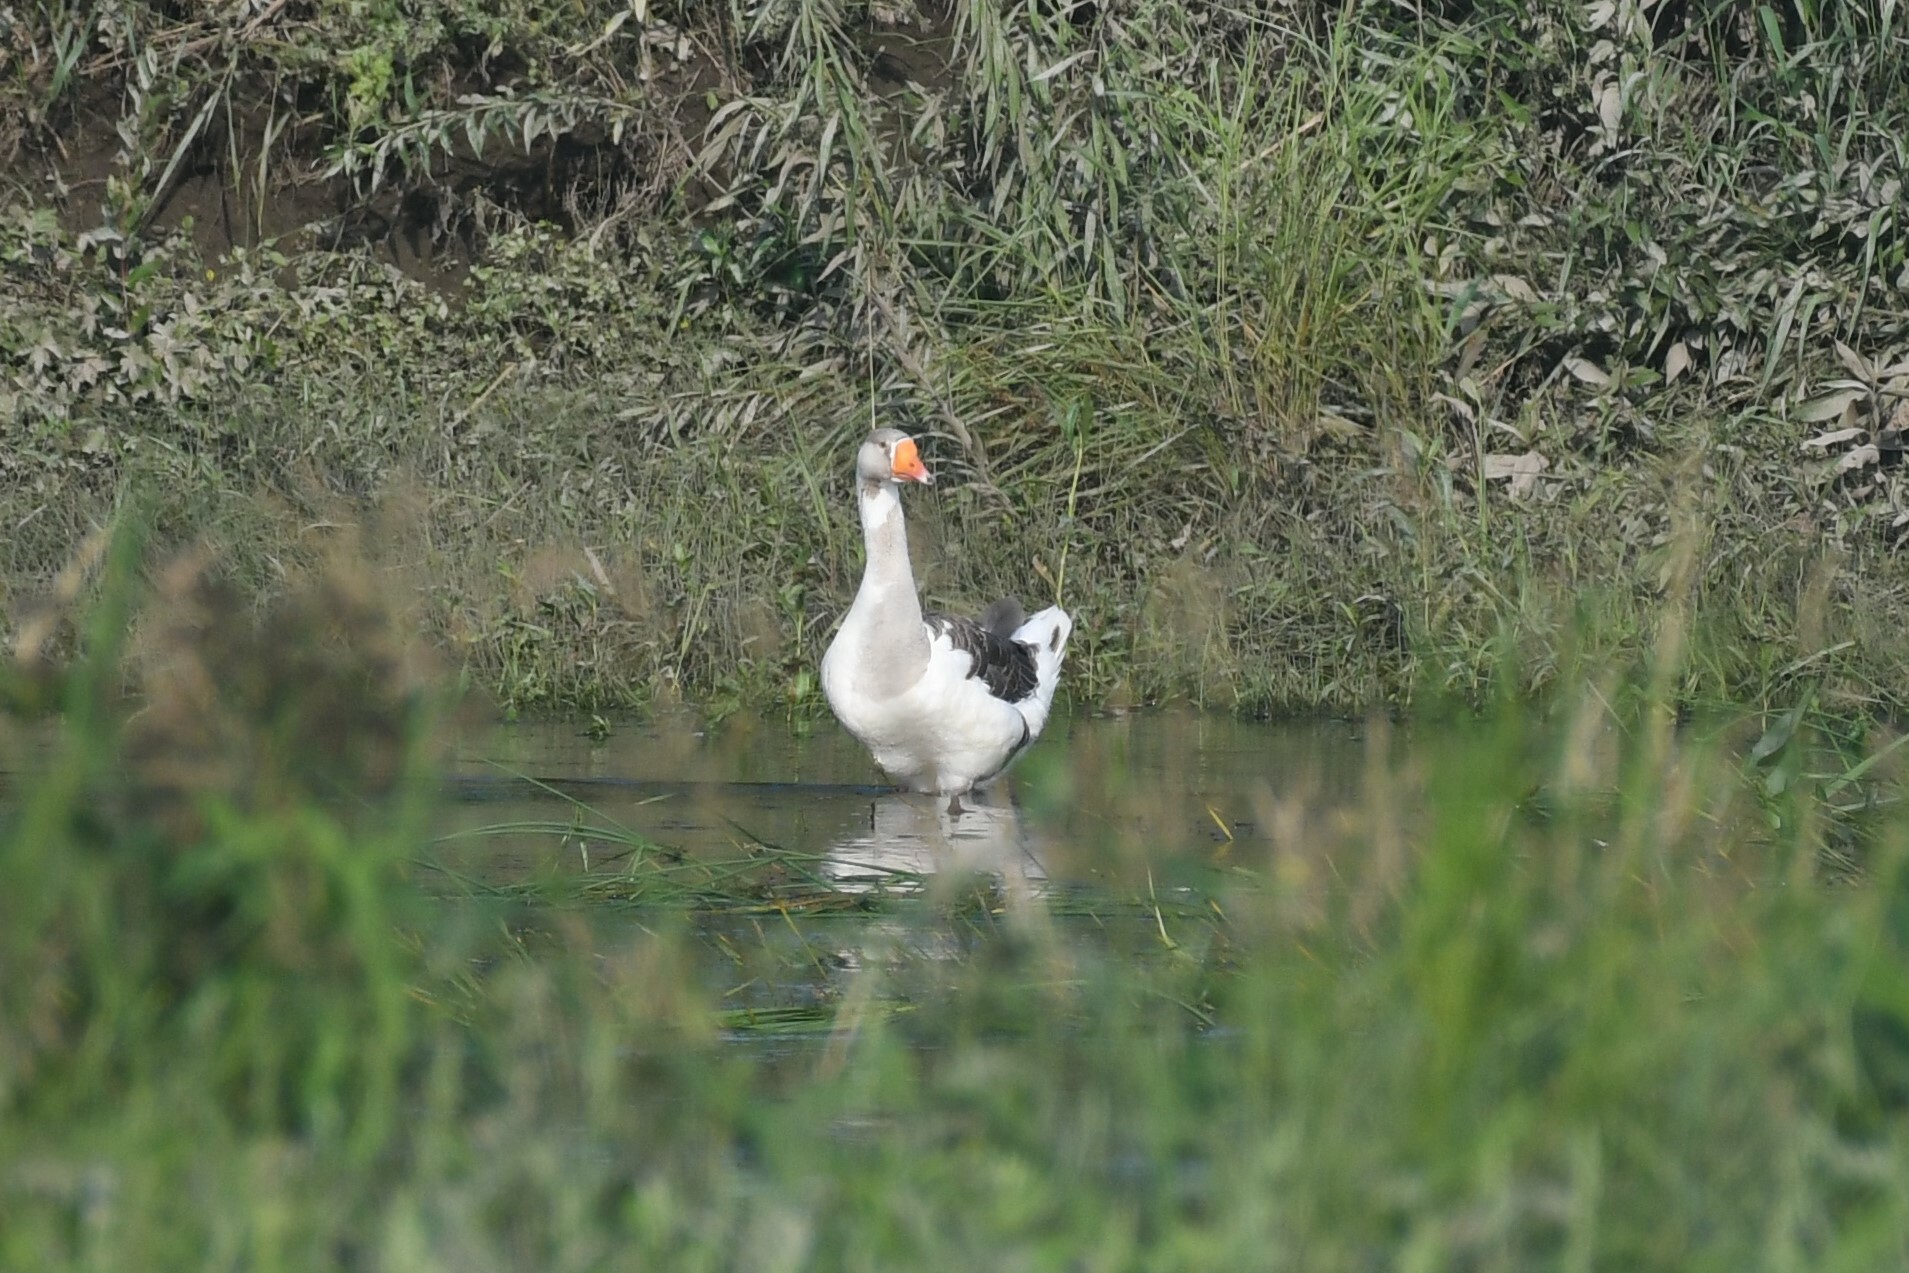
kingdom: Animalia
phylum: Chordata
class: Aves
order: Anseriformes
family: Anatidae
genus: Anser
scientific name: Anser anser
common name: Greylag goose
